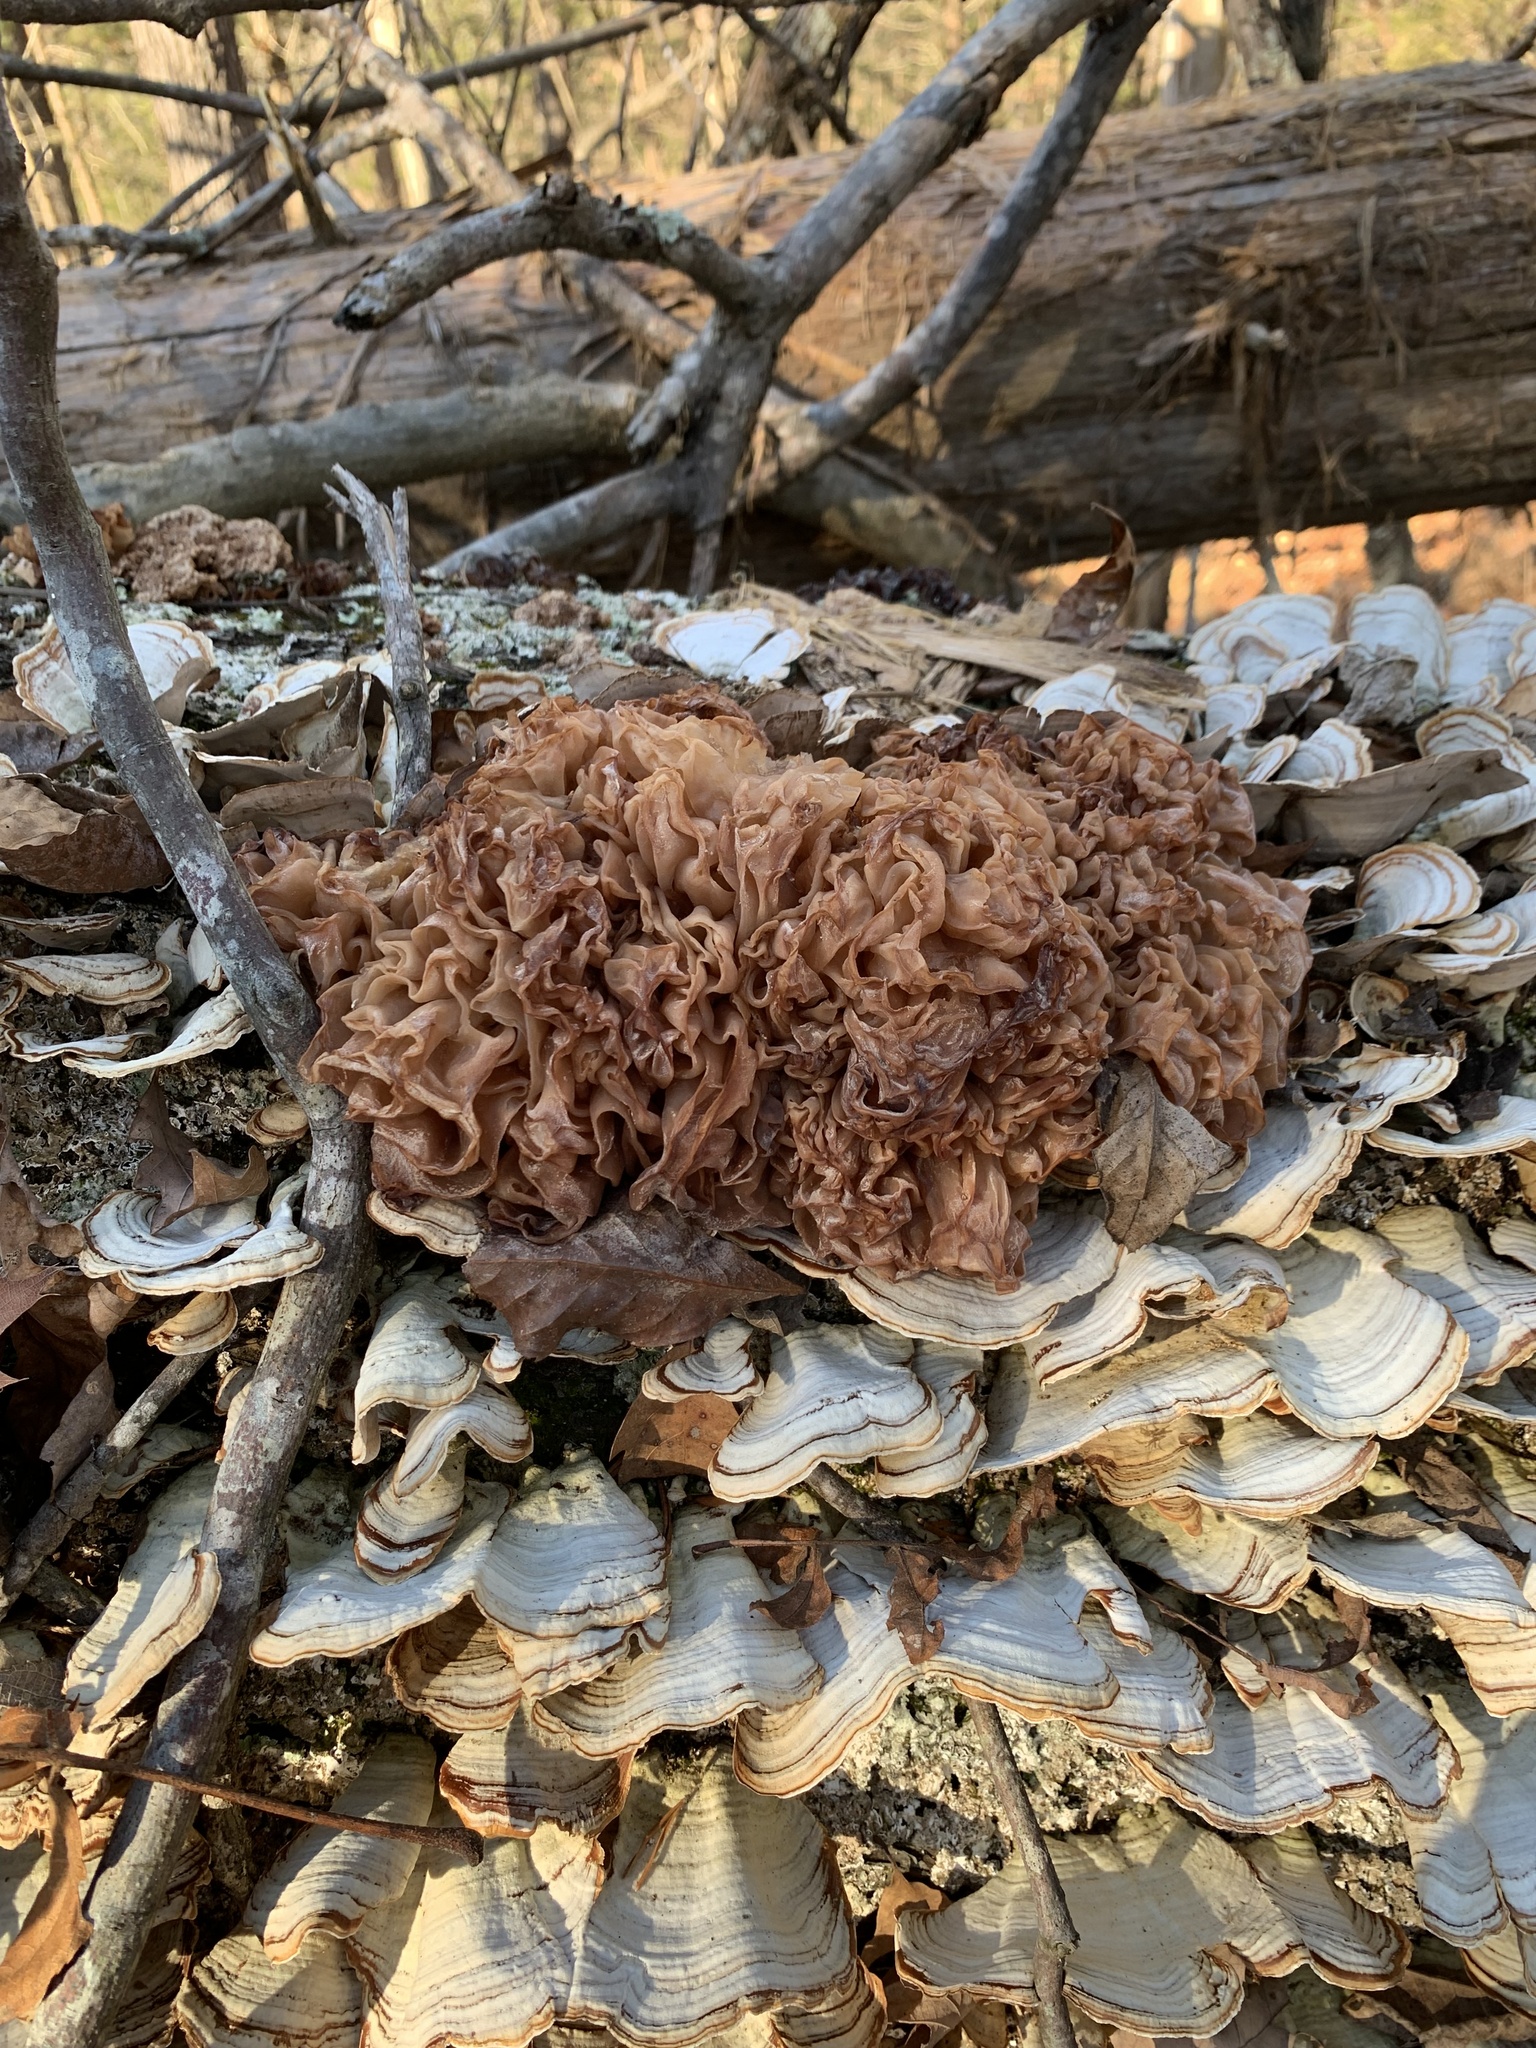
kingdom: Fungi
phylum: Basidiomycota
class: Tremellomycetes
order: Tremellales
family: Tremellaceae
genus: Phaeotremella
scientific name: Phaeotremella frondosa
